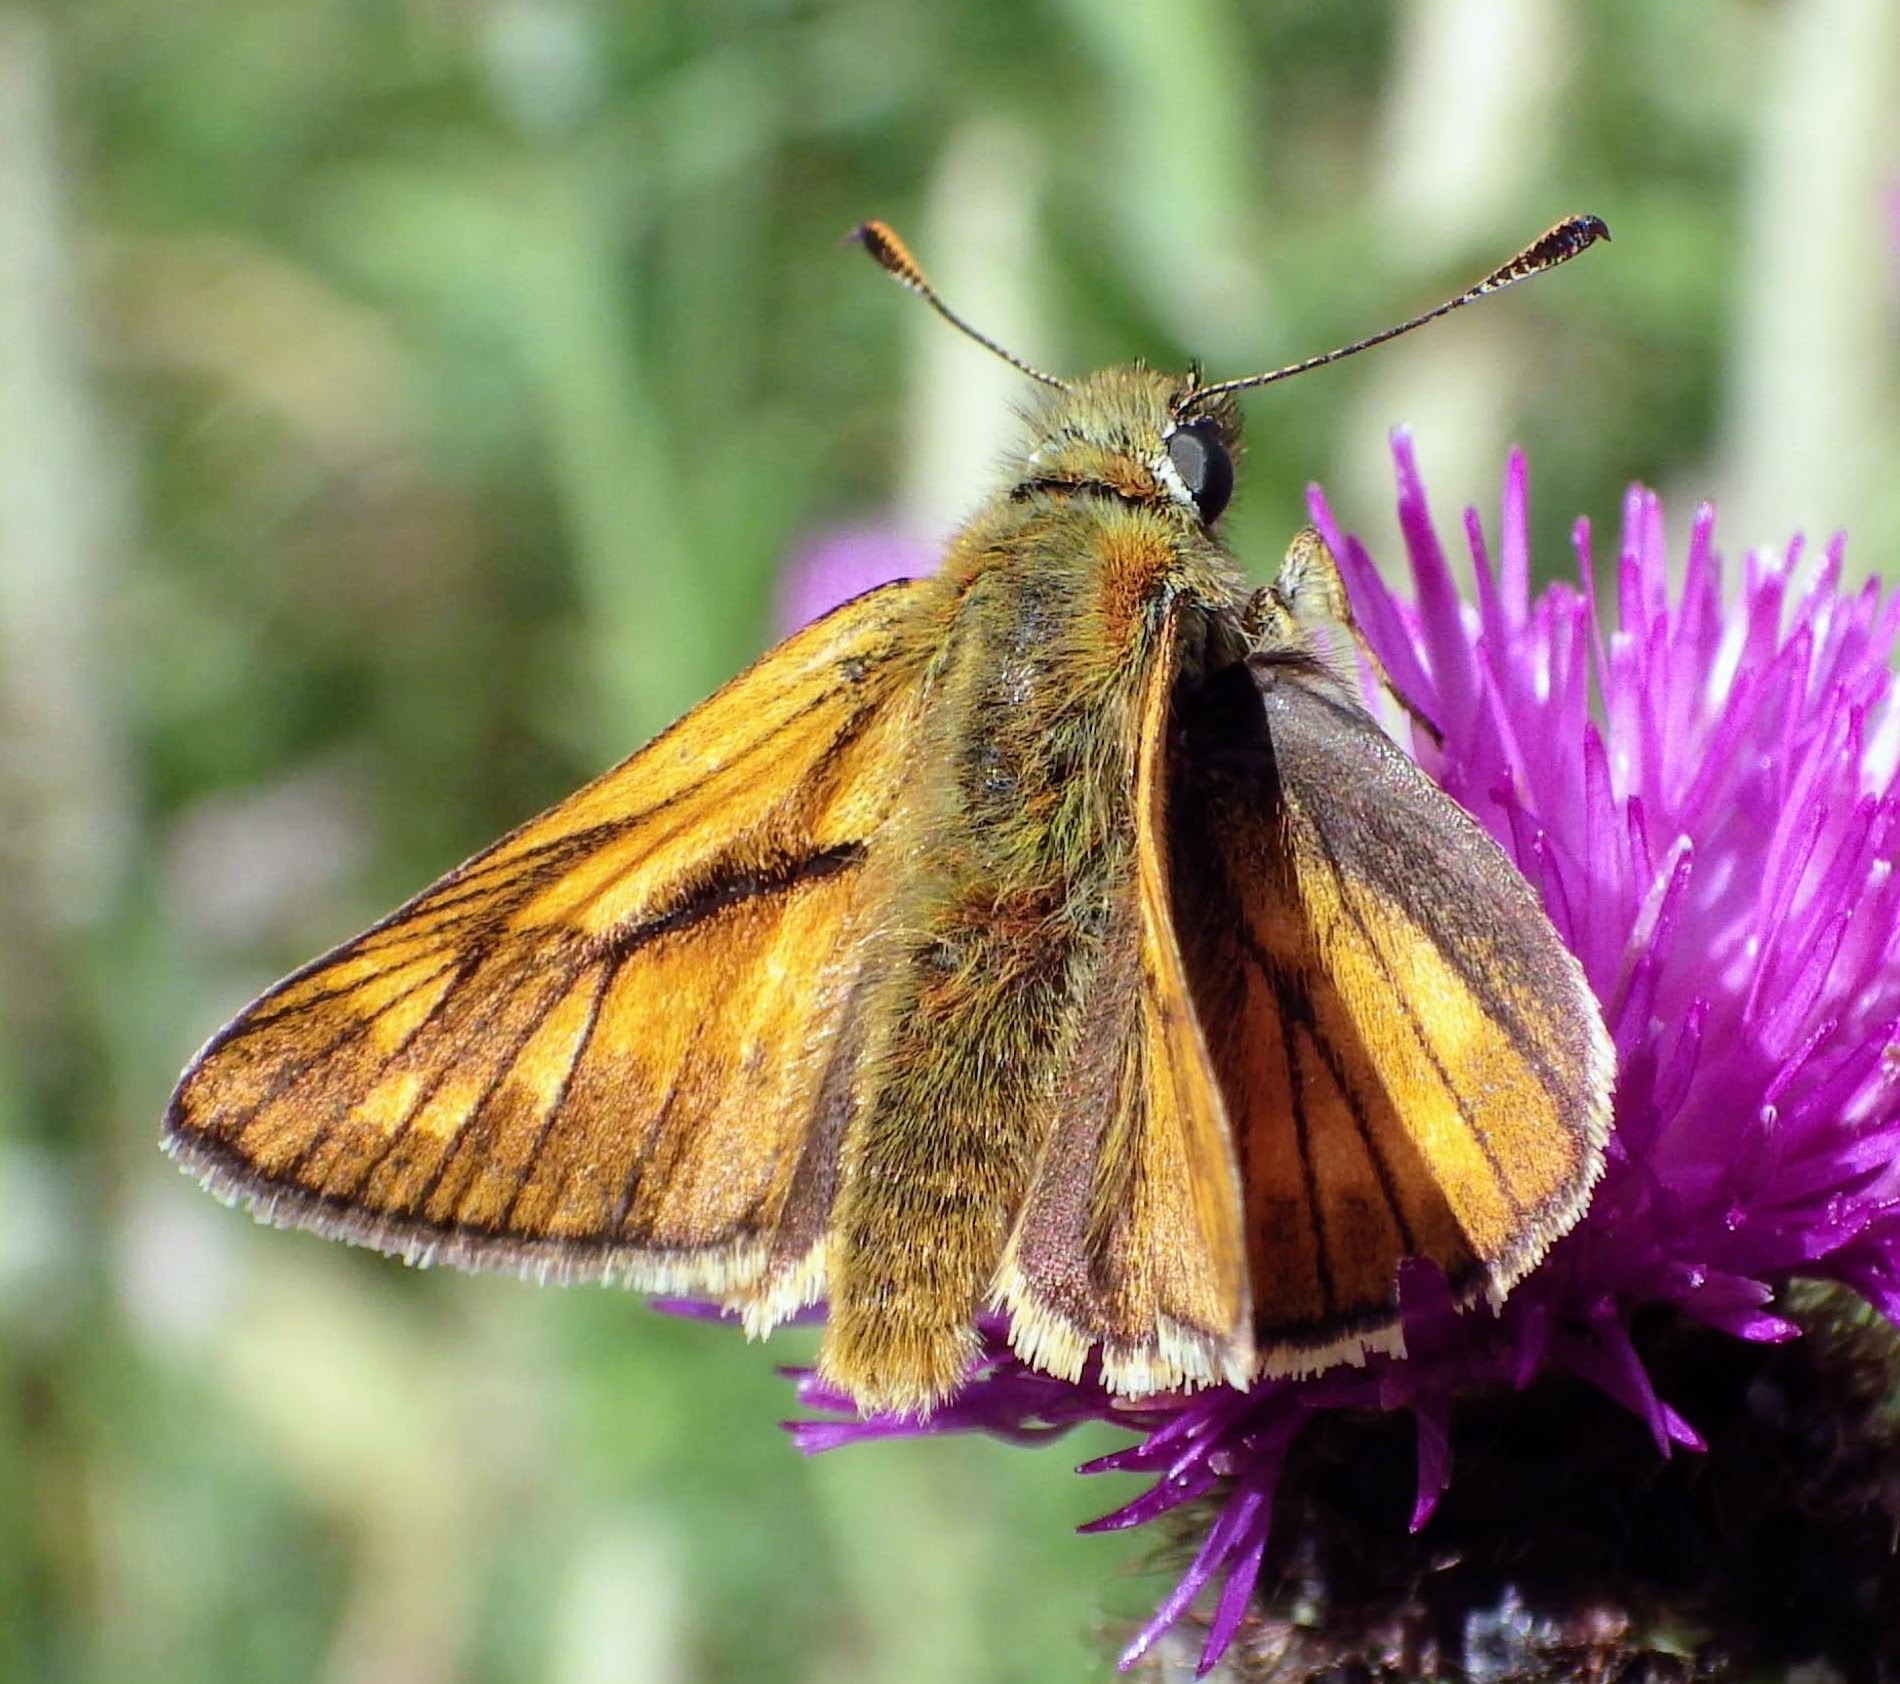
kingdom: Animalia
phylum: Arthropoda
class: Insecta
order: Lepidoptera
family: Hesperiidae
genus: Ochlodes
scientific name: Ochlodes venata
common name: Large skipper
